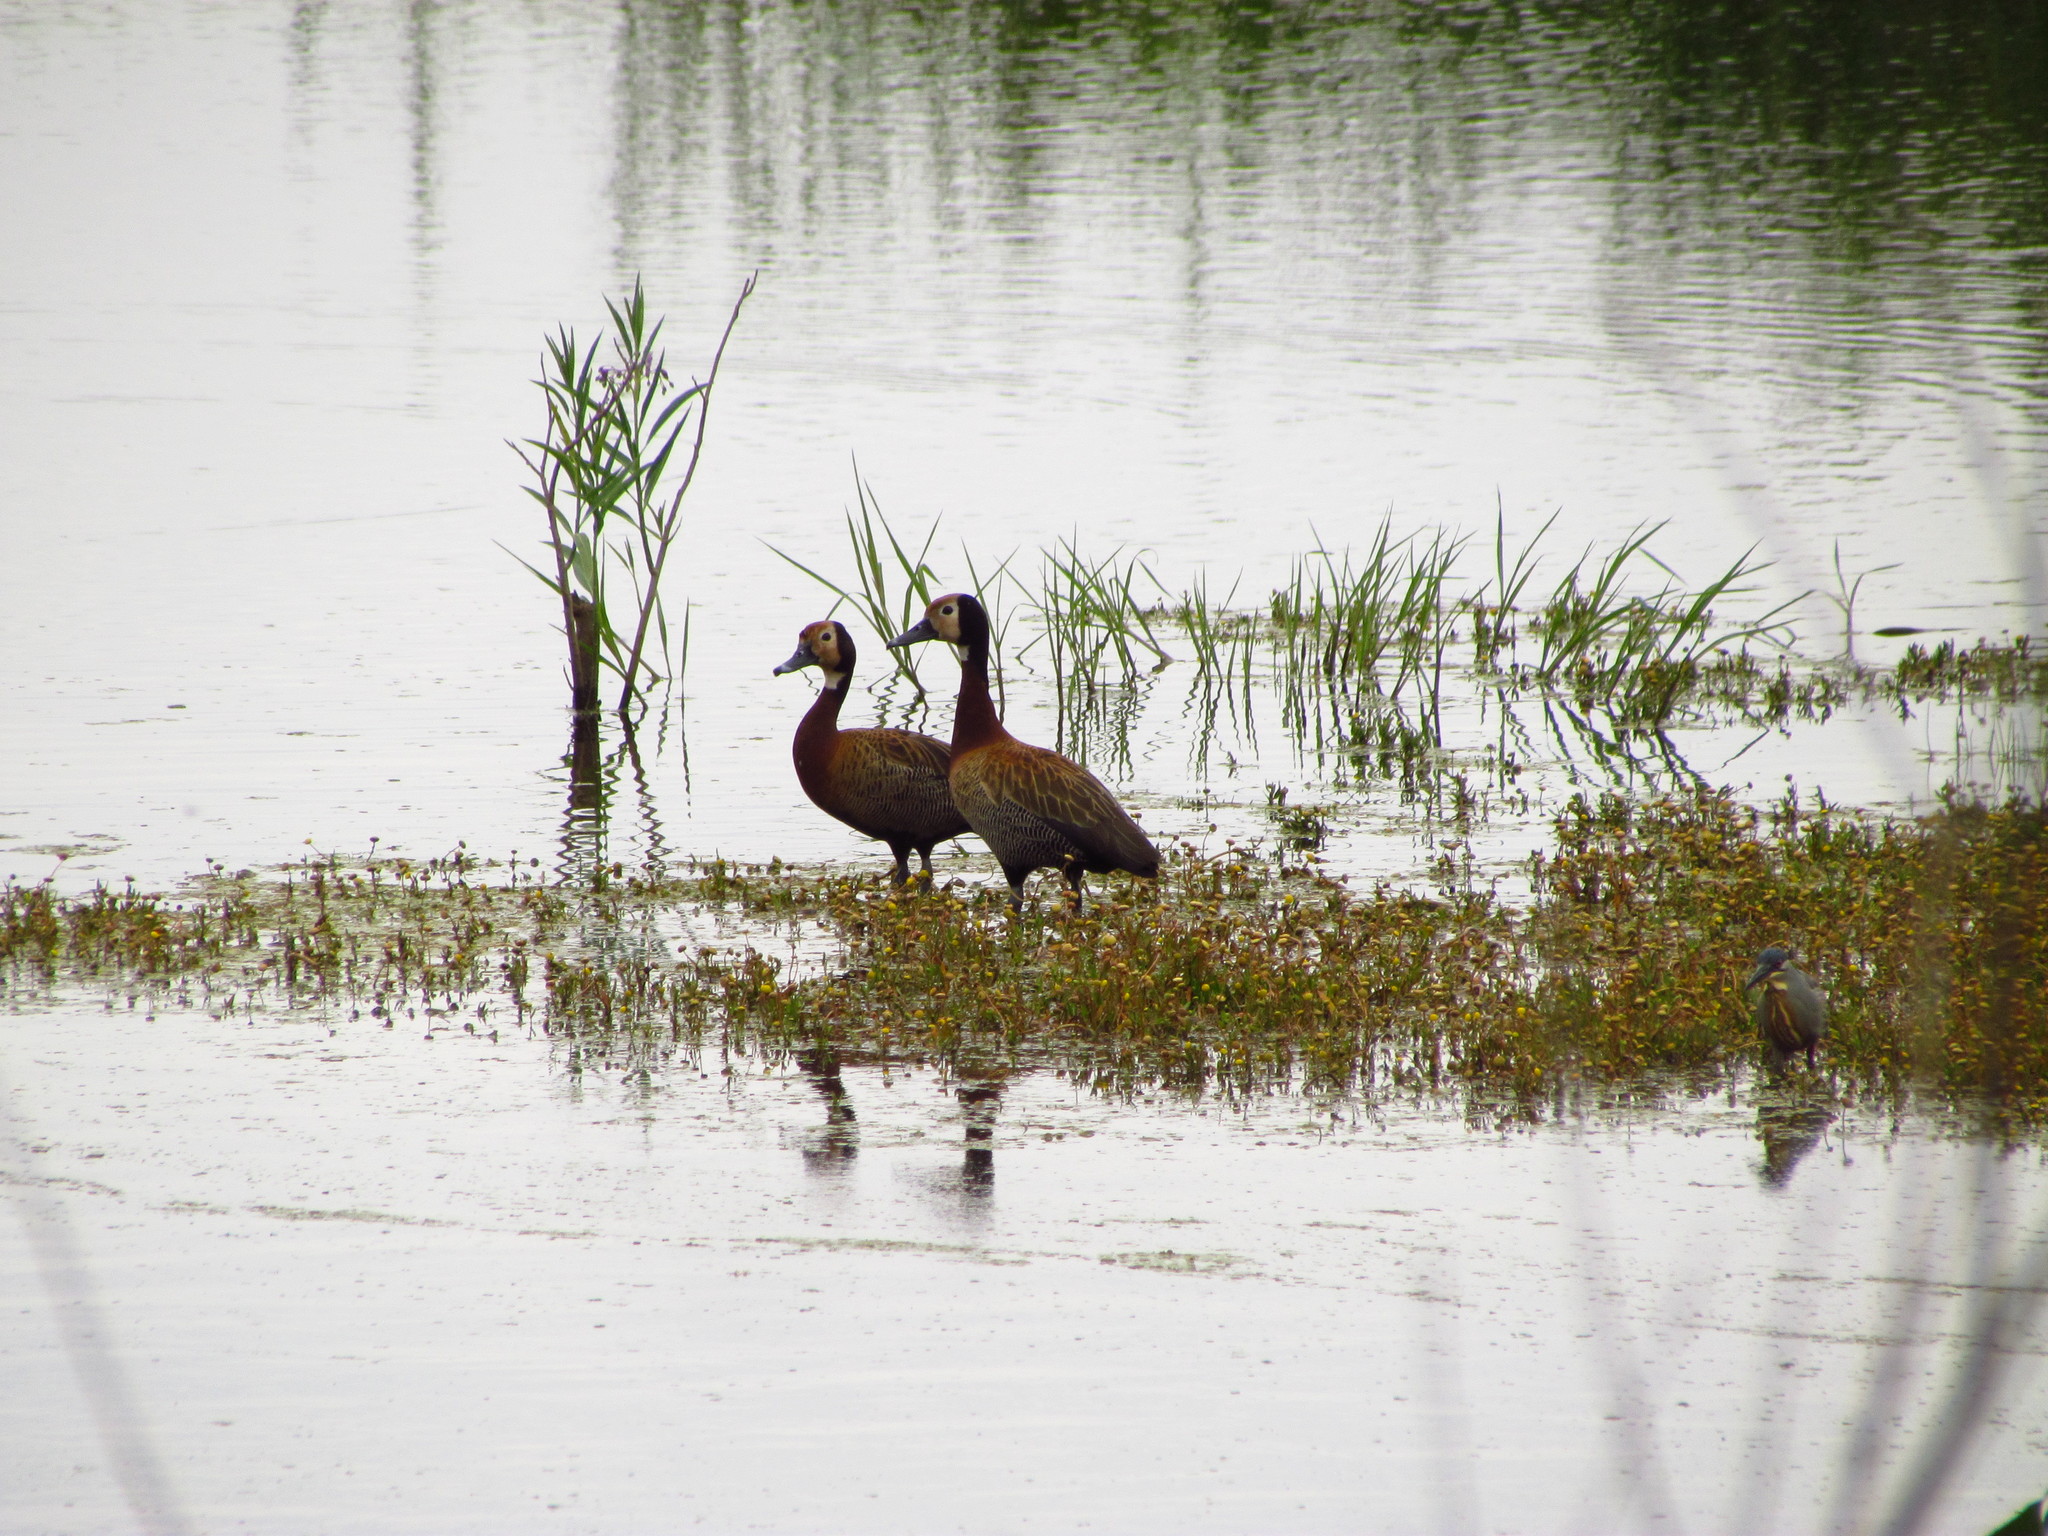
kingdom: Animalia
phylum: Chordata
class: Aves
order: Anseriformes
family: Anatidae
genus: Dendrocygna
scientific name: Dendrocygna viduata
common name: White-faced whistling duck
